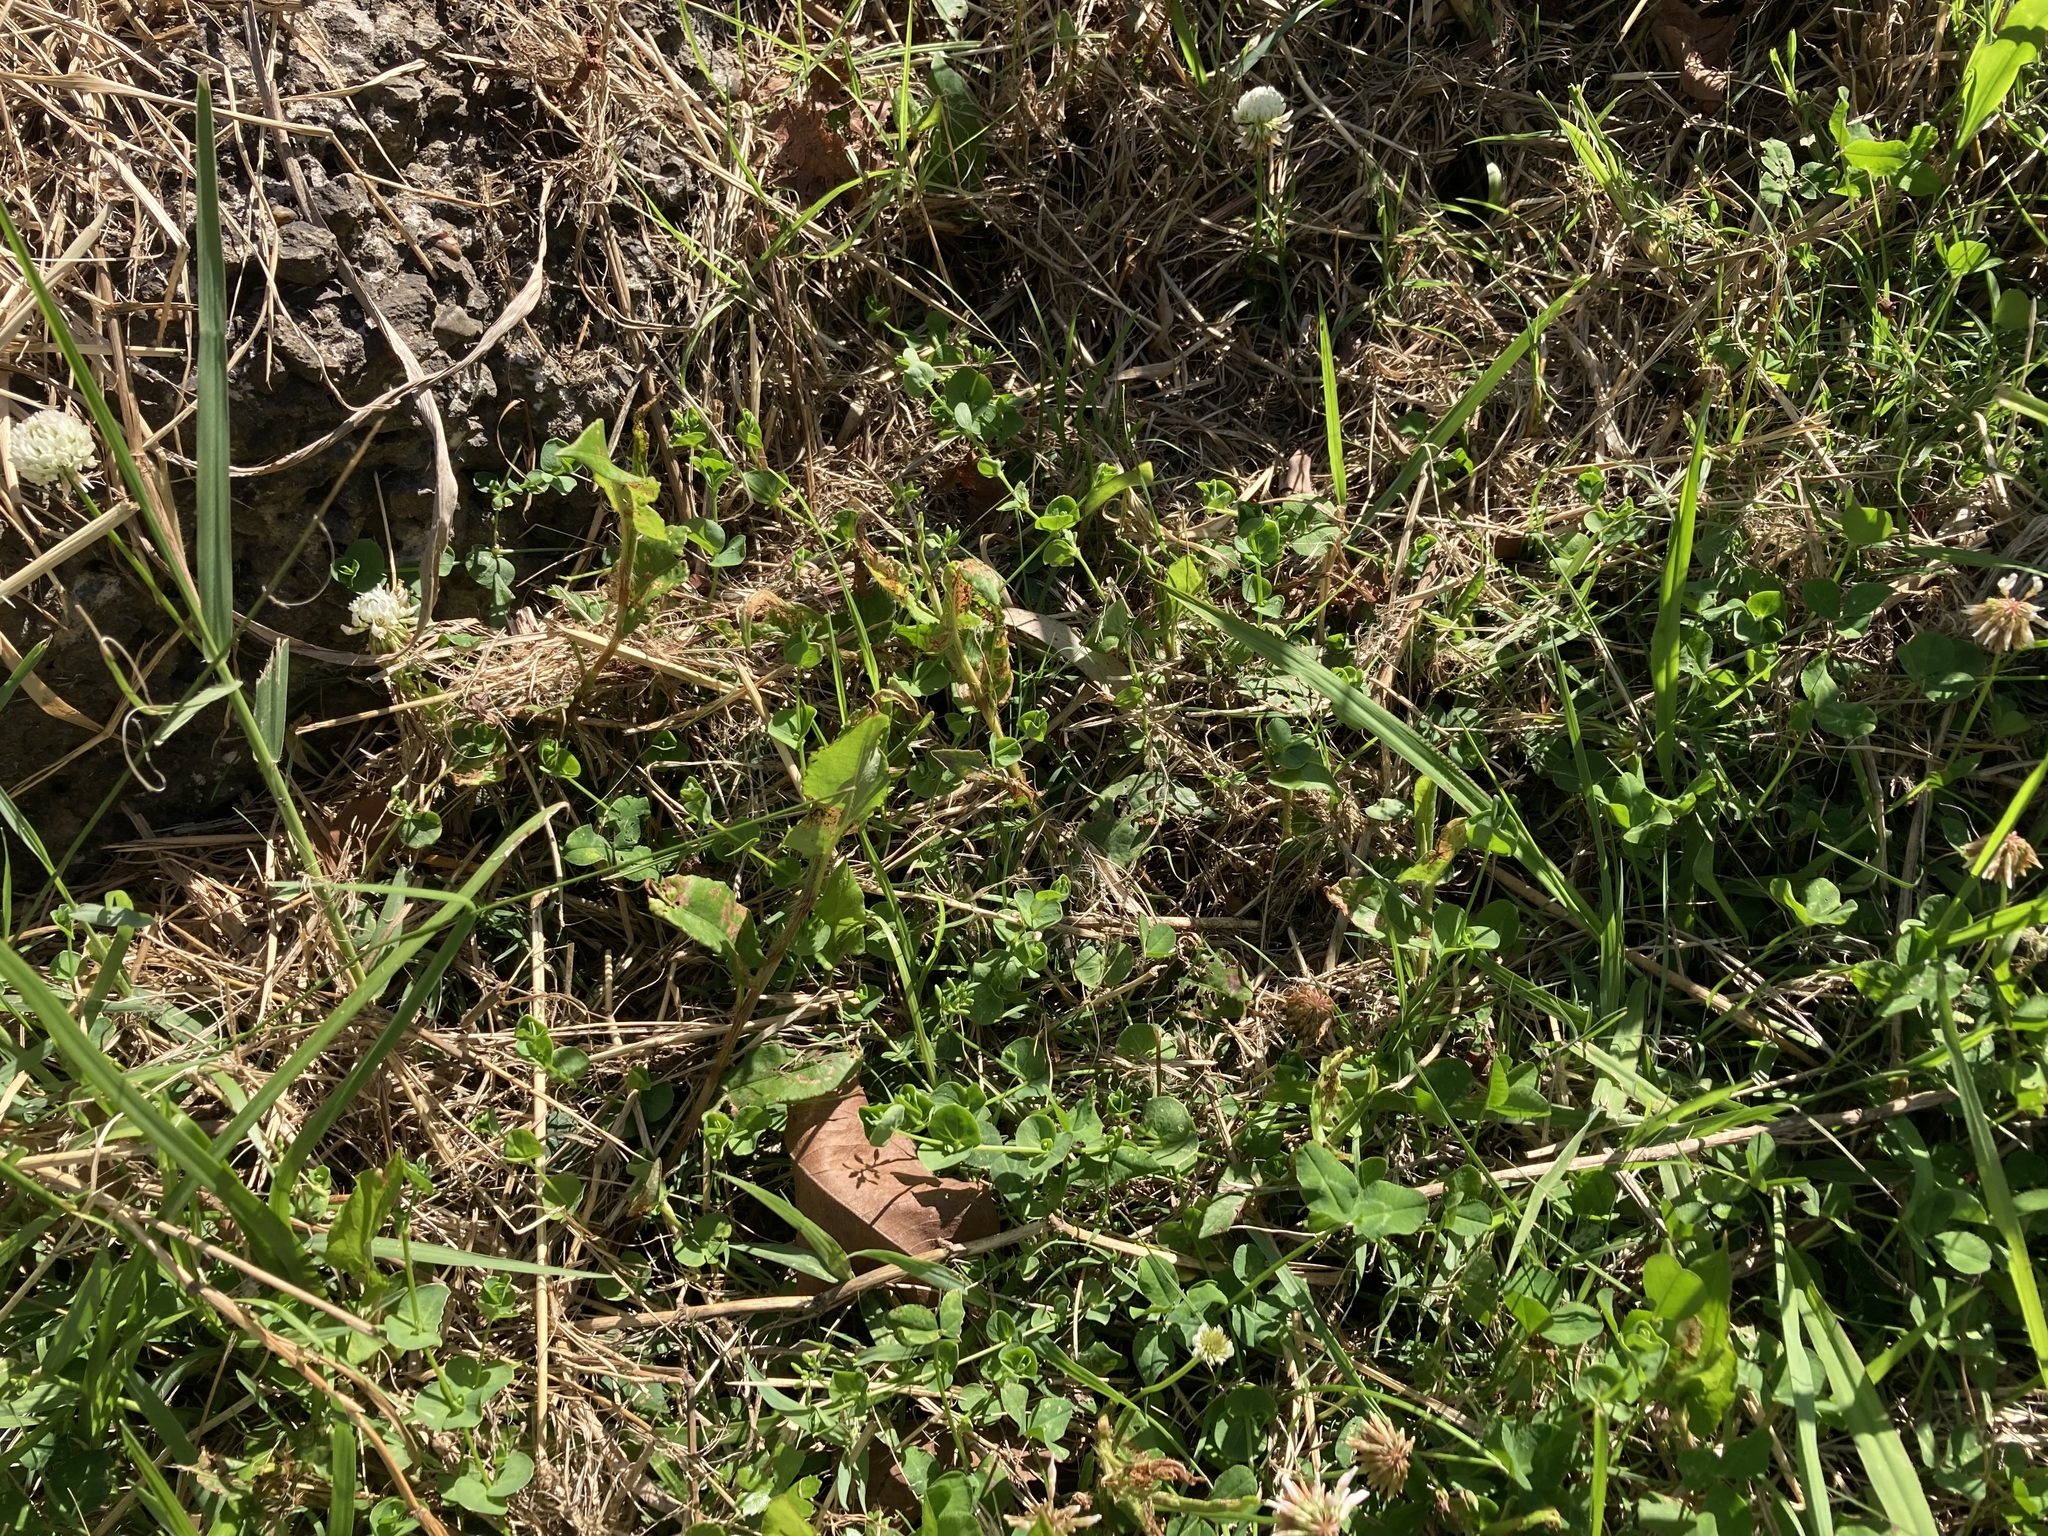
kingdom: Plantae
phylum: Tracheophyta
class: Magnoliopsida
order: Caryophyllales
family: Caryophyllaceae
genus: Drymaria
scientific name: Drymaria cordata
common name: Whitesnow
